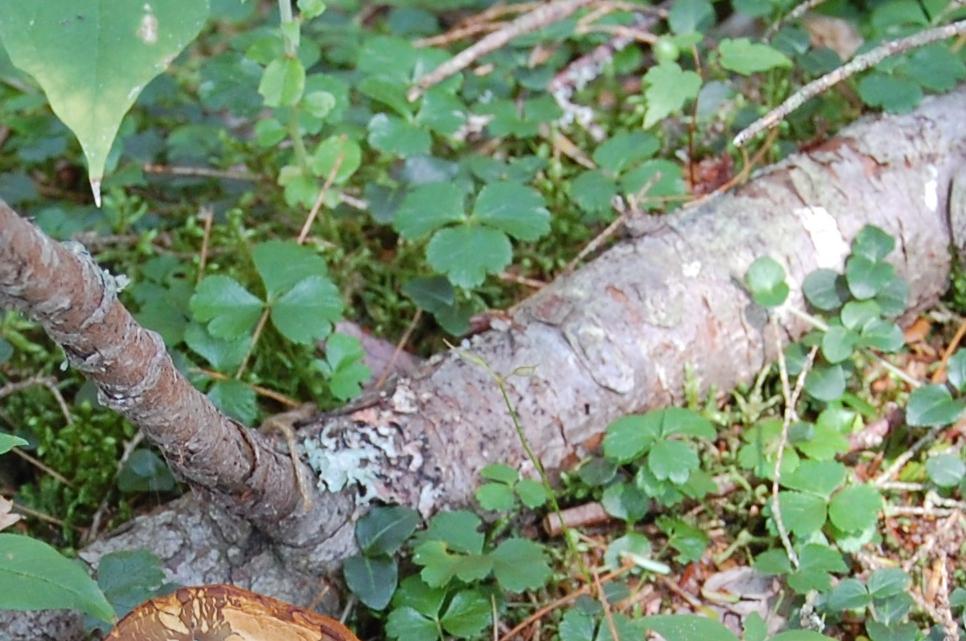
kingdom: Plantae
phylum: Tracheophyta
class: Magnoliopsida
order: Ranunculales
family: Ranunculaceae
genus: Coptis
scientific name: Coptis trifolia
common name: Canker-root
